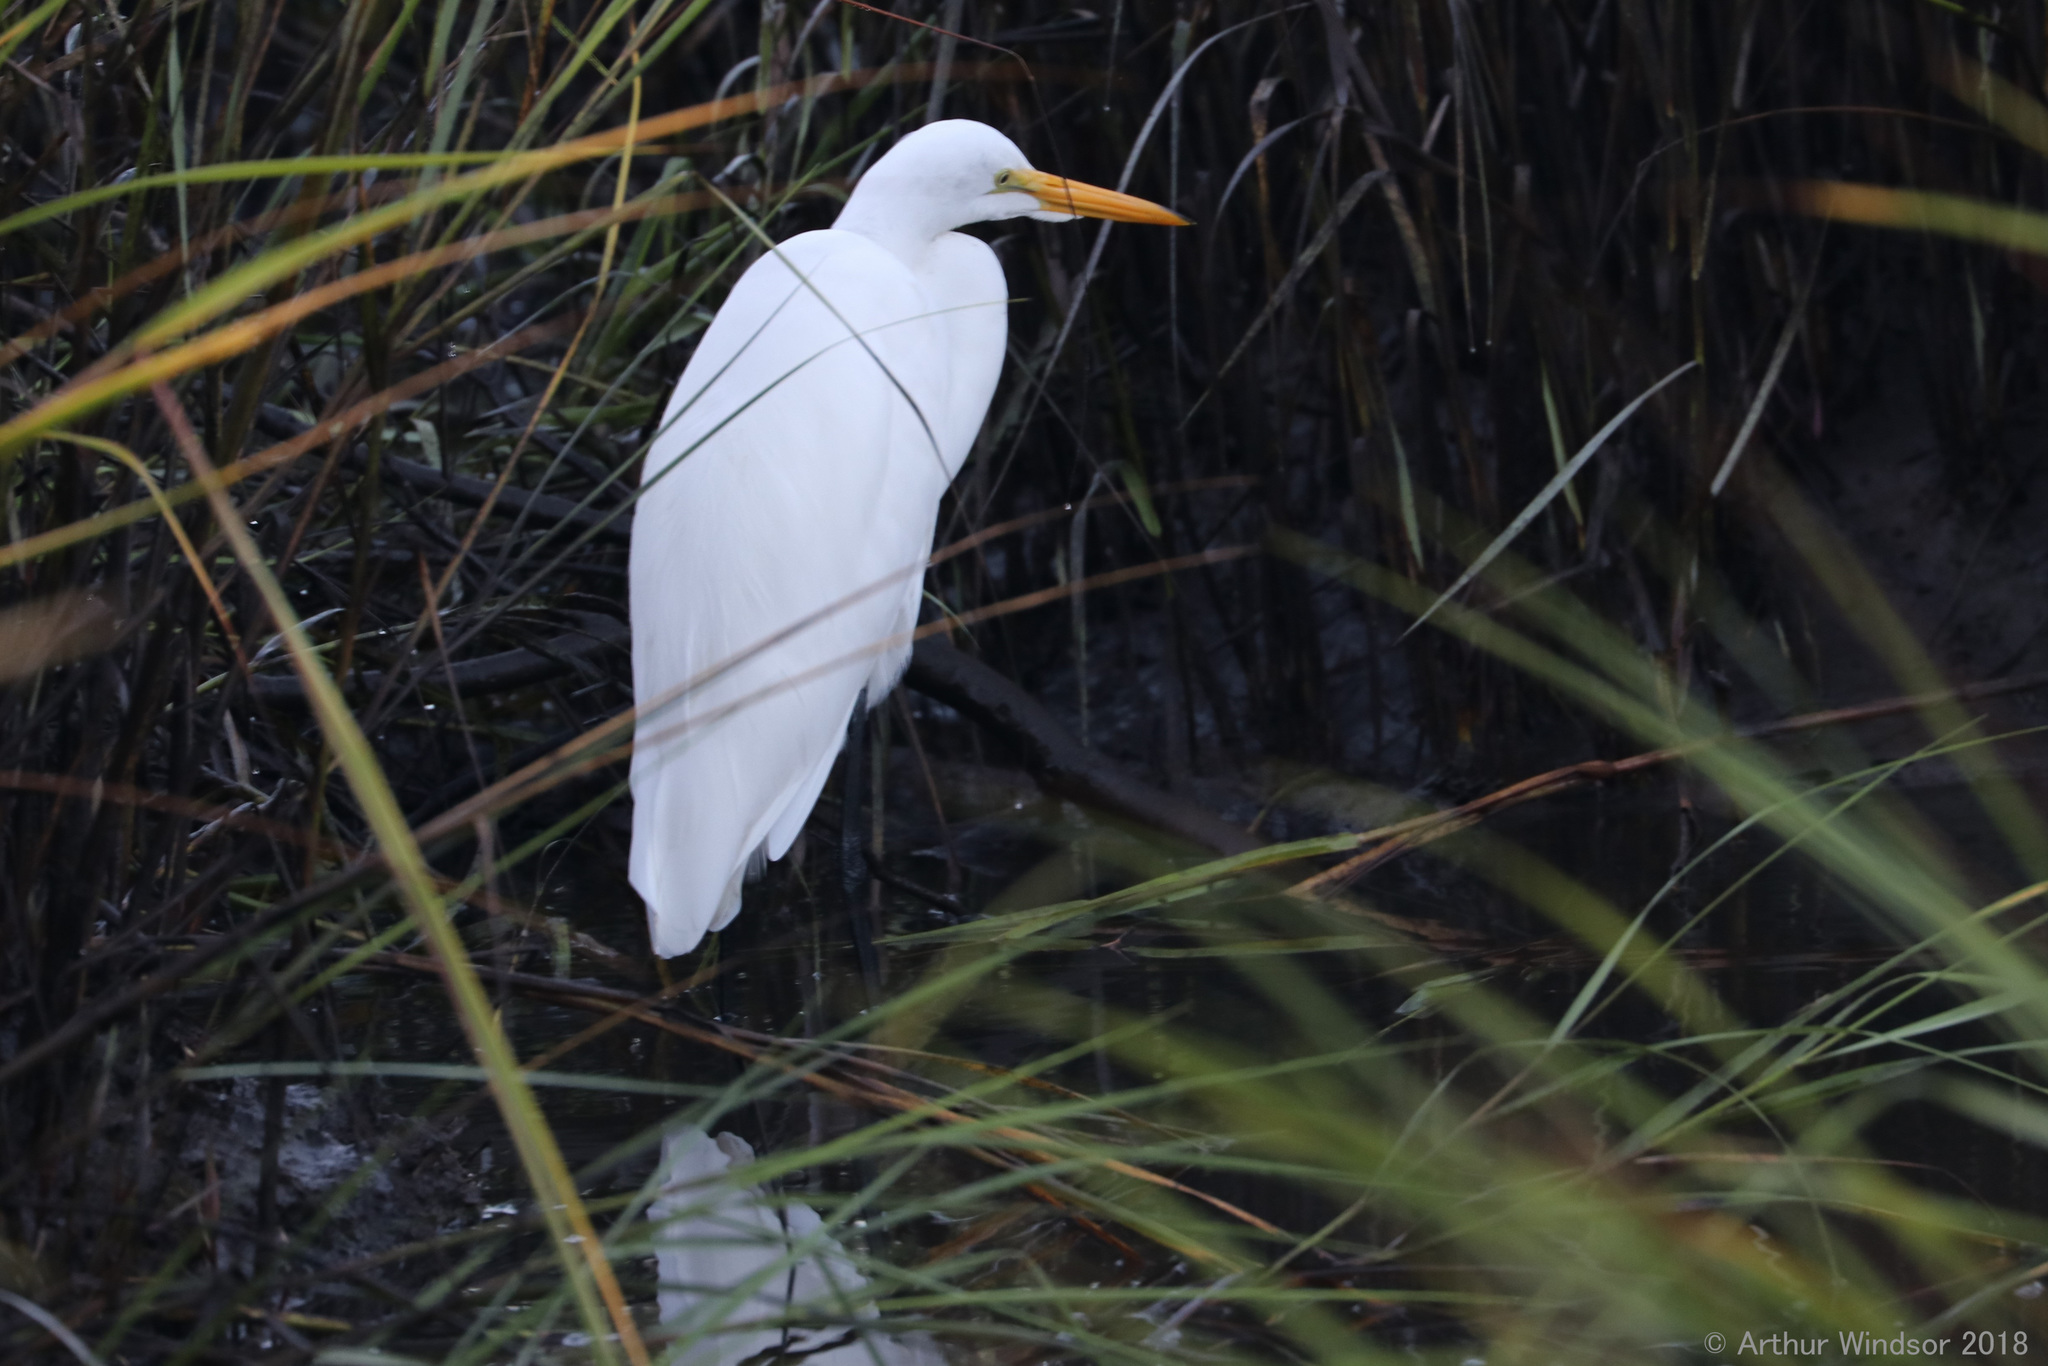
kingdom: Animalia
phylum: Chordata
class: Aves
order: Pelecaniformes
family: Ardeidae
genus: Ardea
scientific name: Ardea alba
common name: Great egret
